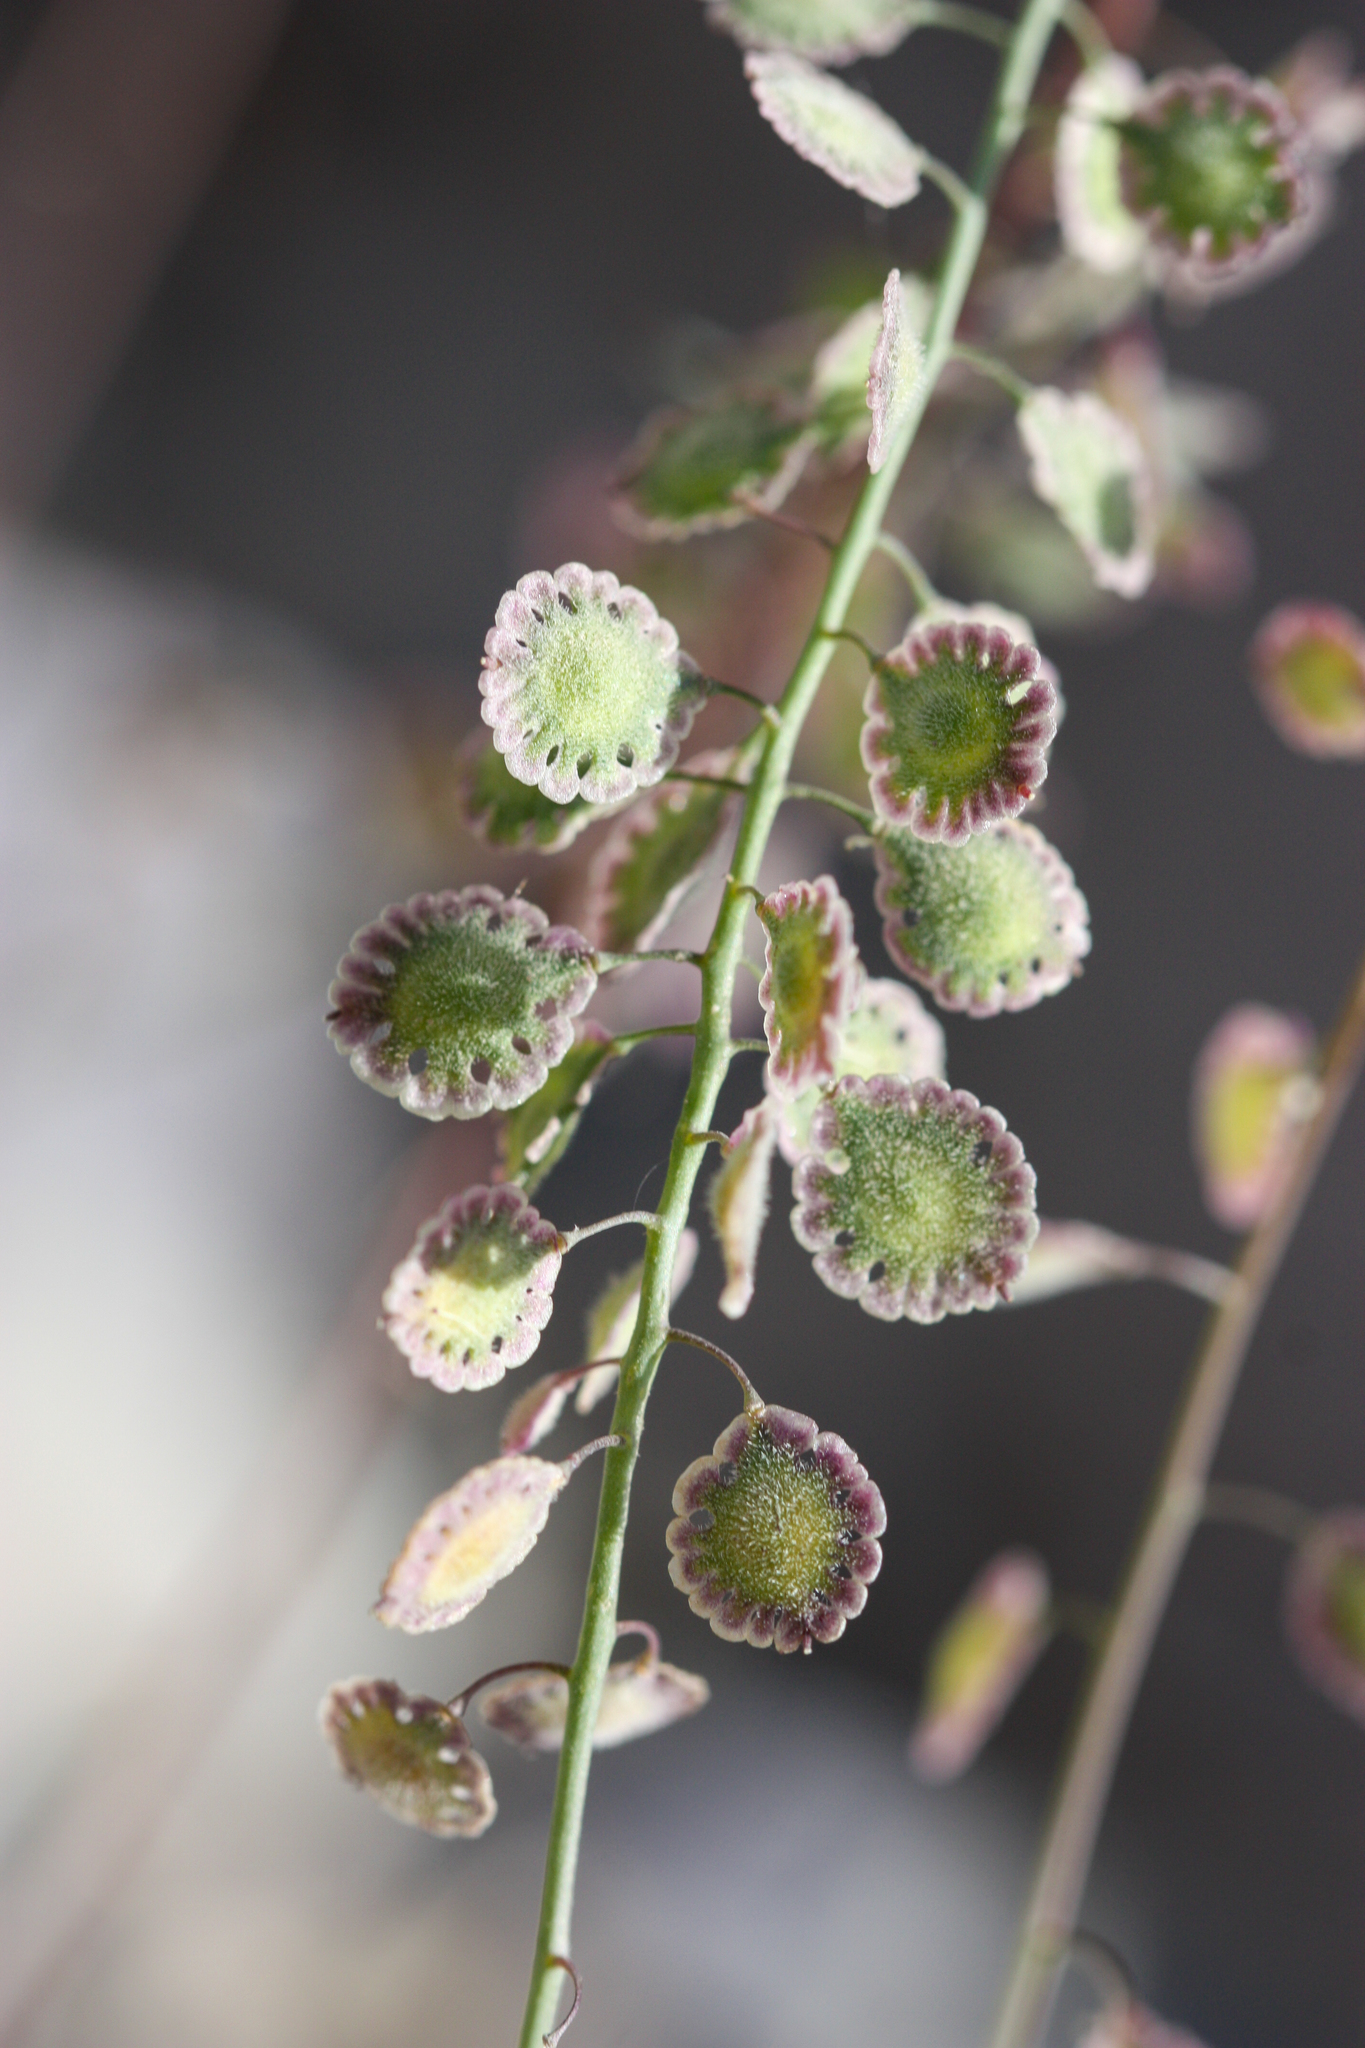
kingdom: Plantae
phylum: Tracheophyta
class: Magnoliopsida
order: Brassicales
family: Brassicaceae
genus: Thysanocarpus
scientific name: Thysanocarpus curvipes
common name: Sand fringepod
